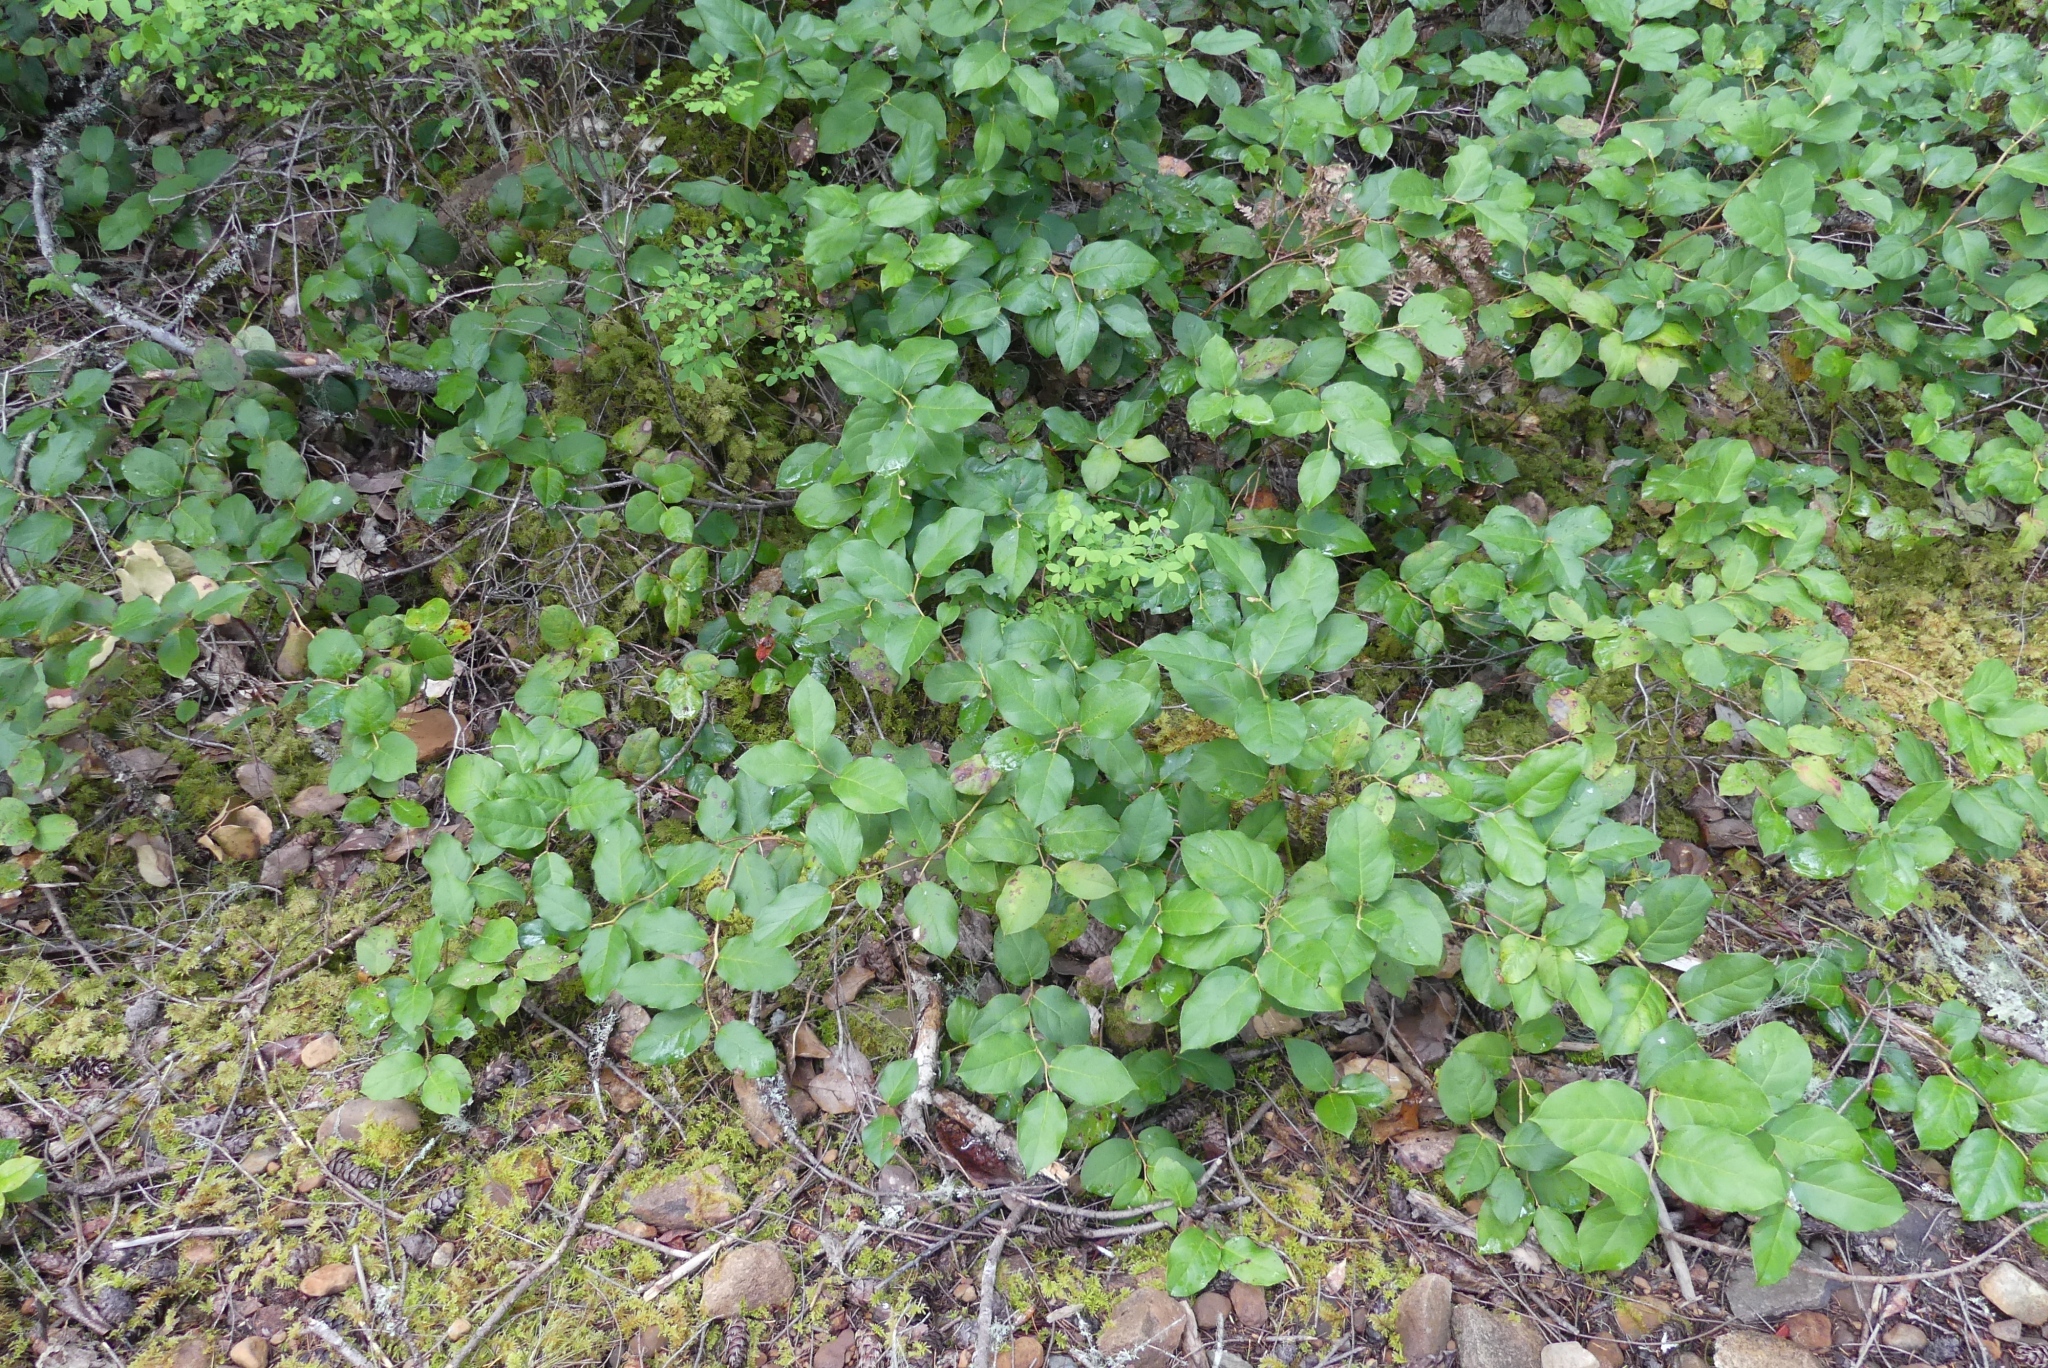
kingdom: Plantae
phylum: Tracheophyta
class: Magnoliopsida
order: Ericales
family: Ericaceae
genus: Gaultheria
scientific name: Gaultheria shallon
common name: Shallon
